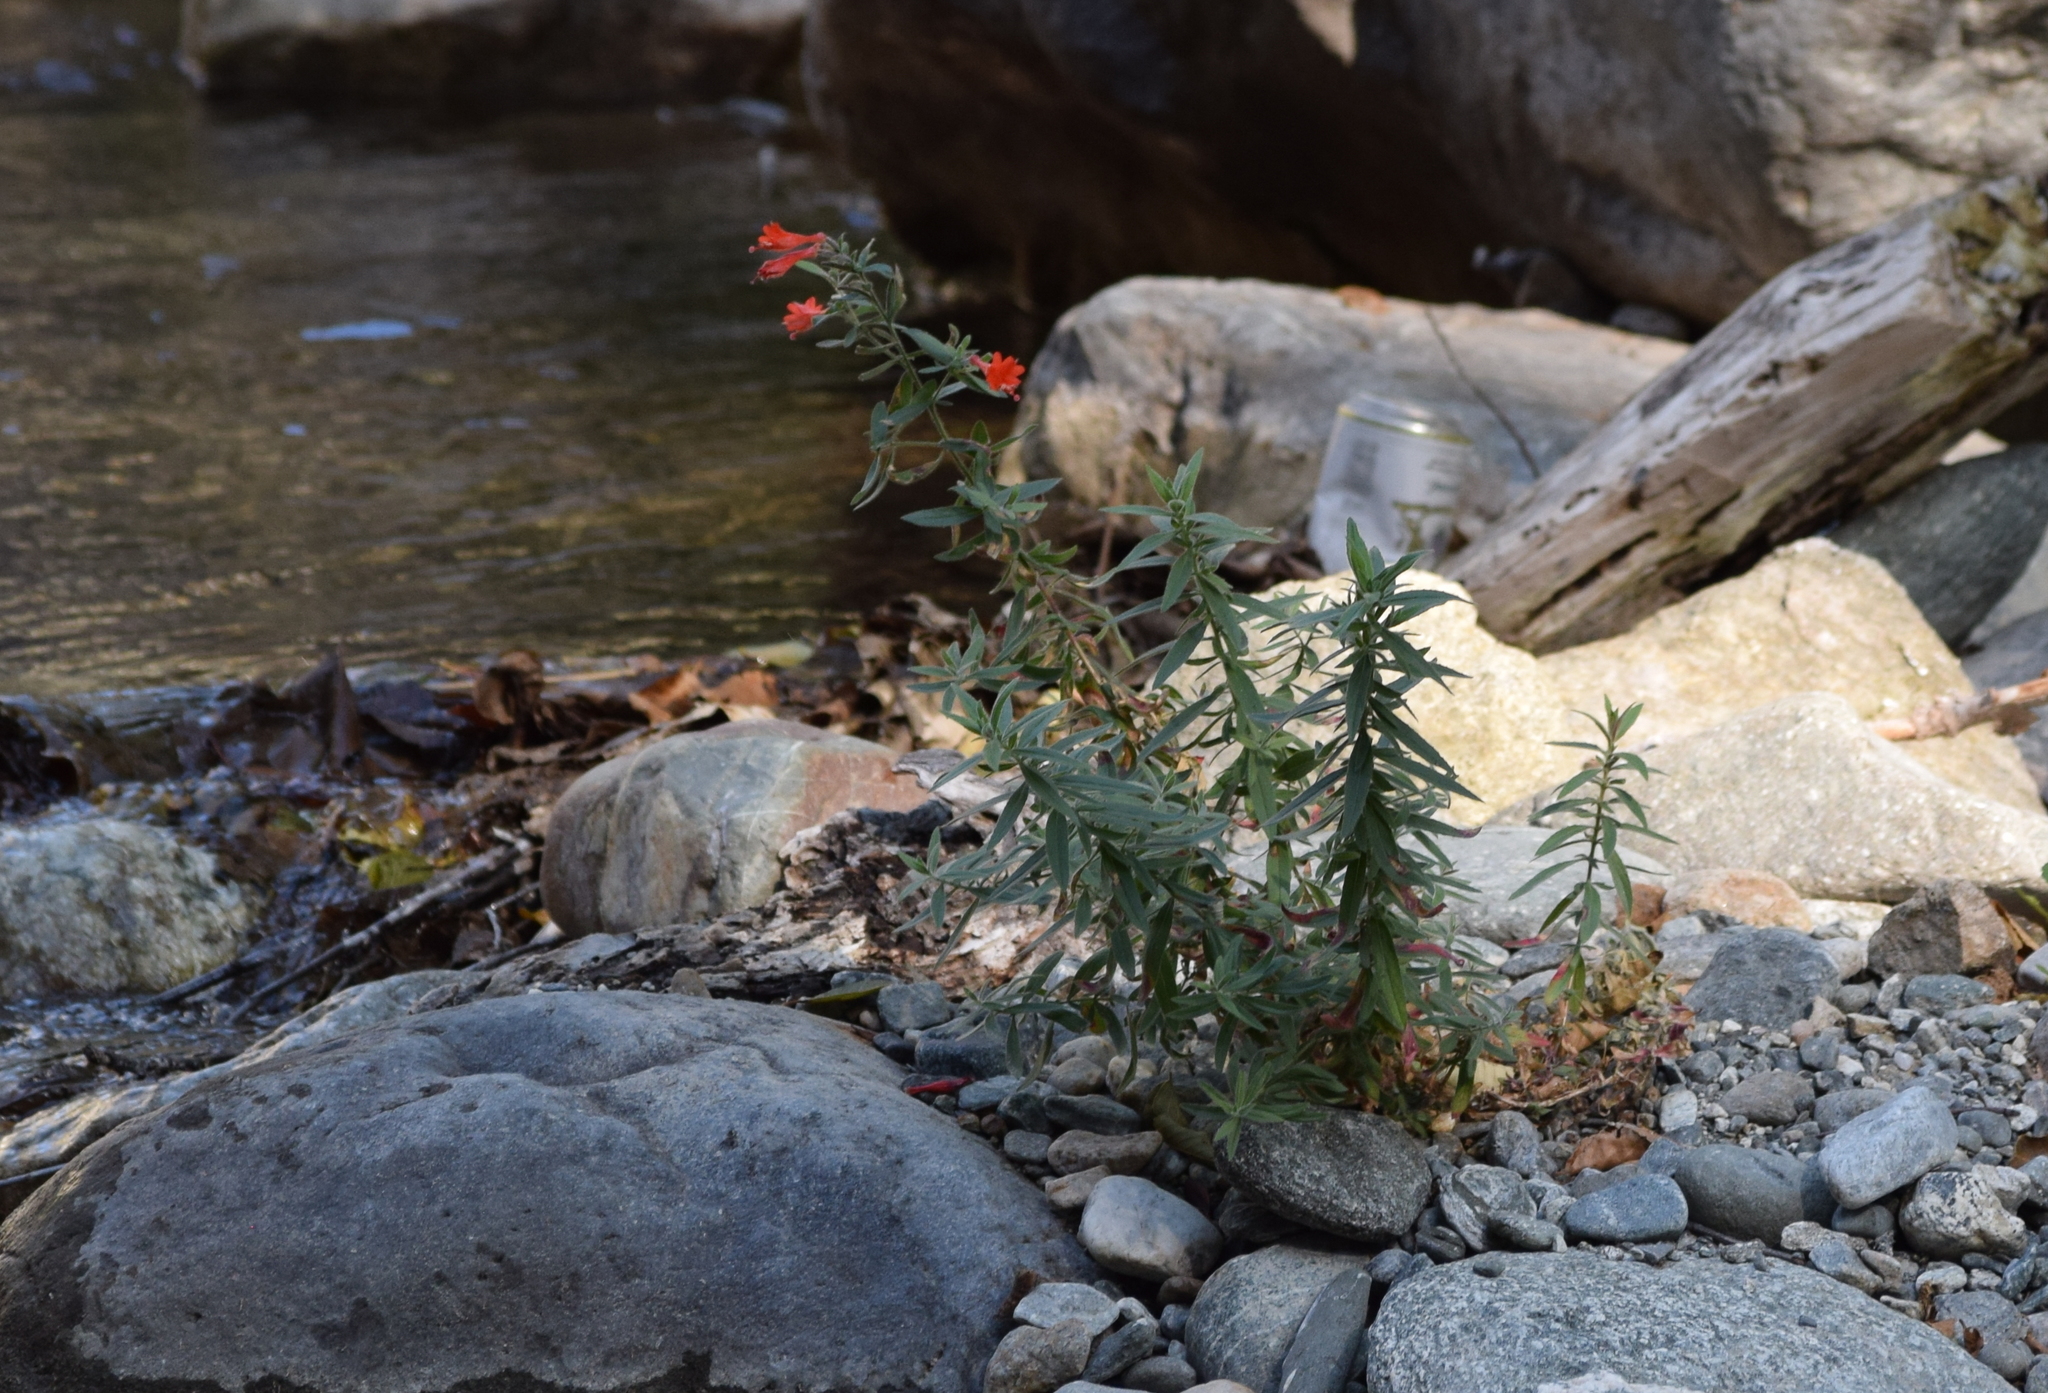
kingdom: Plantae
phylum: Tracheophyta
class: Magnoliopsida
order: Lamiales
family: Phrymaceae
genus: Erythranthe
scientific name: Erythranthe cardinalis
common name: Scarlet monkey-flower
